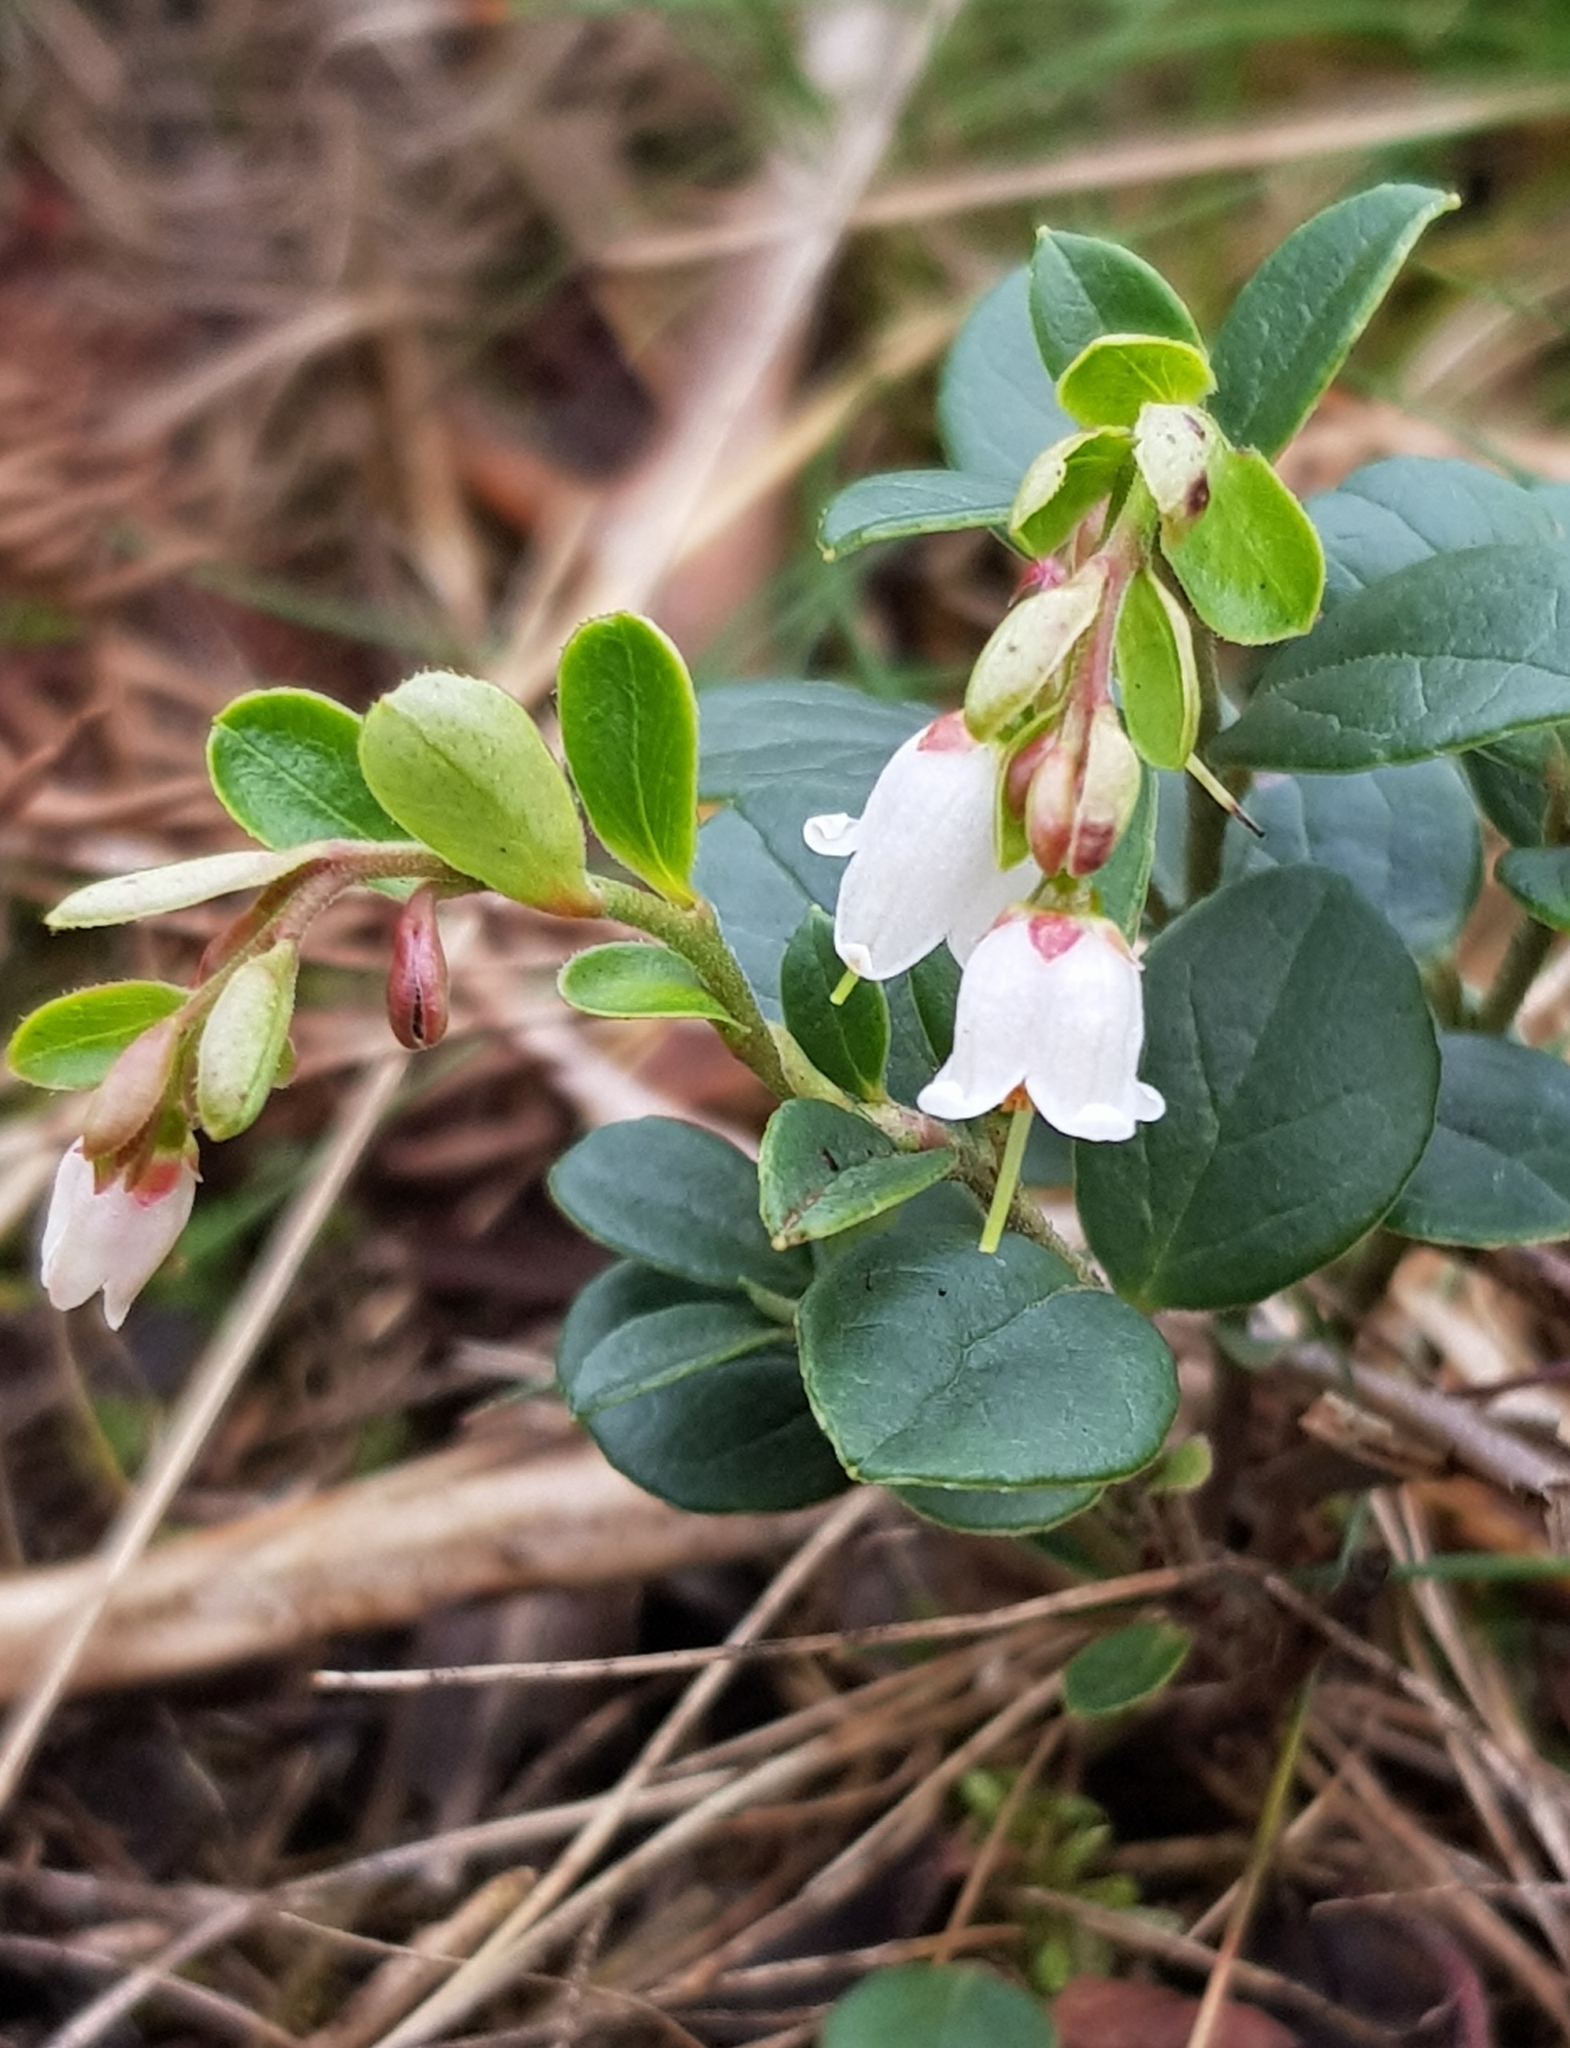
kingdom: Plantae
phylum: Tracheophyta
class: Magnoliopsida
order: Ericales
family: Ericaceae
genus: Vaccinium
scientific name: Vaccinium vitis-idaea
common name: Cowberry
